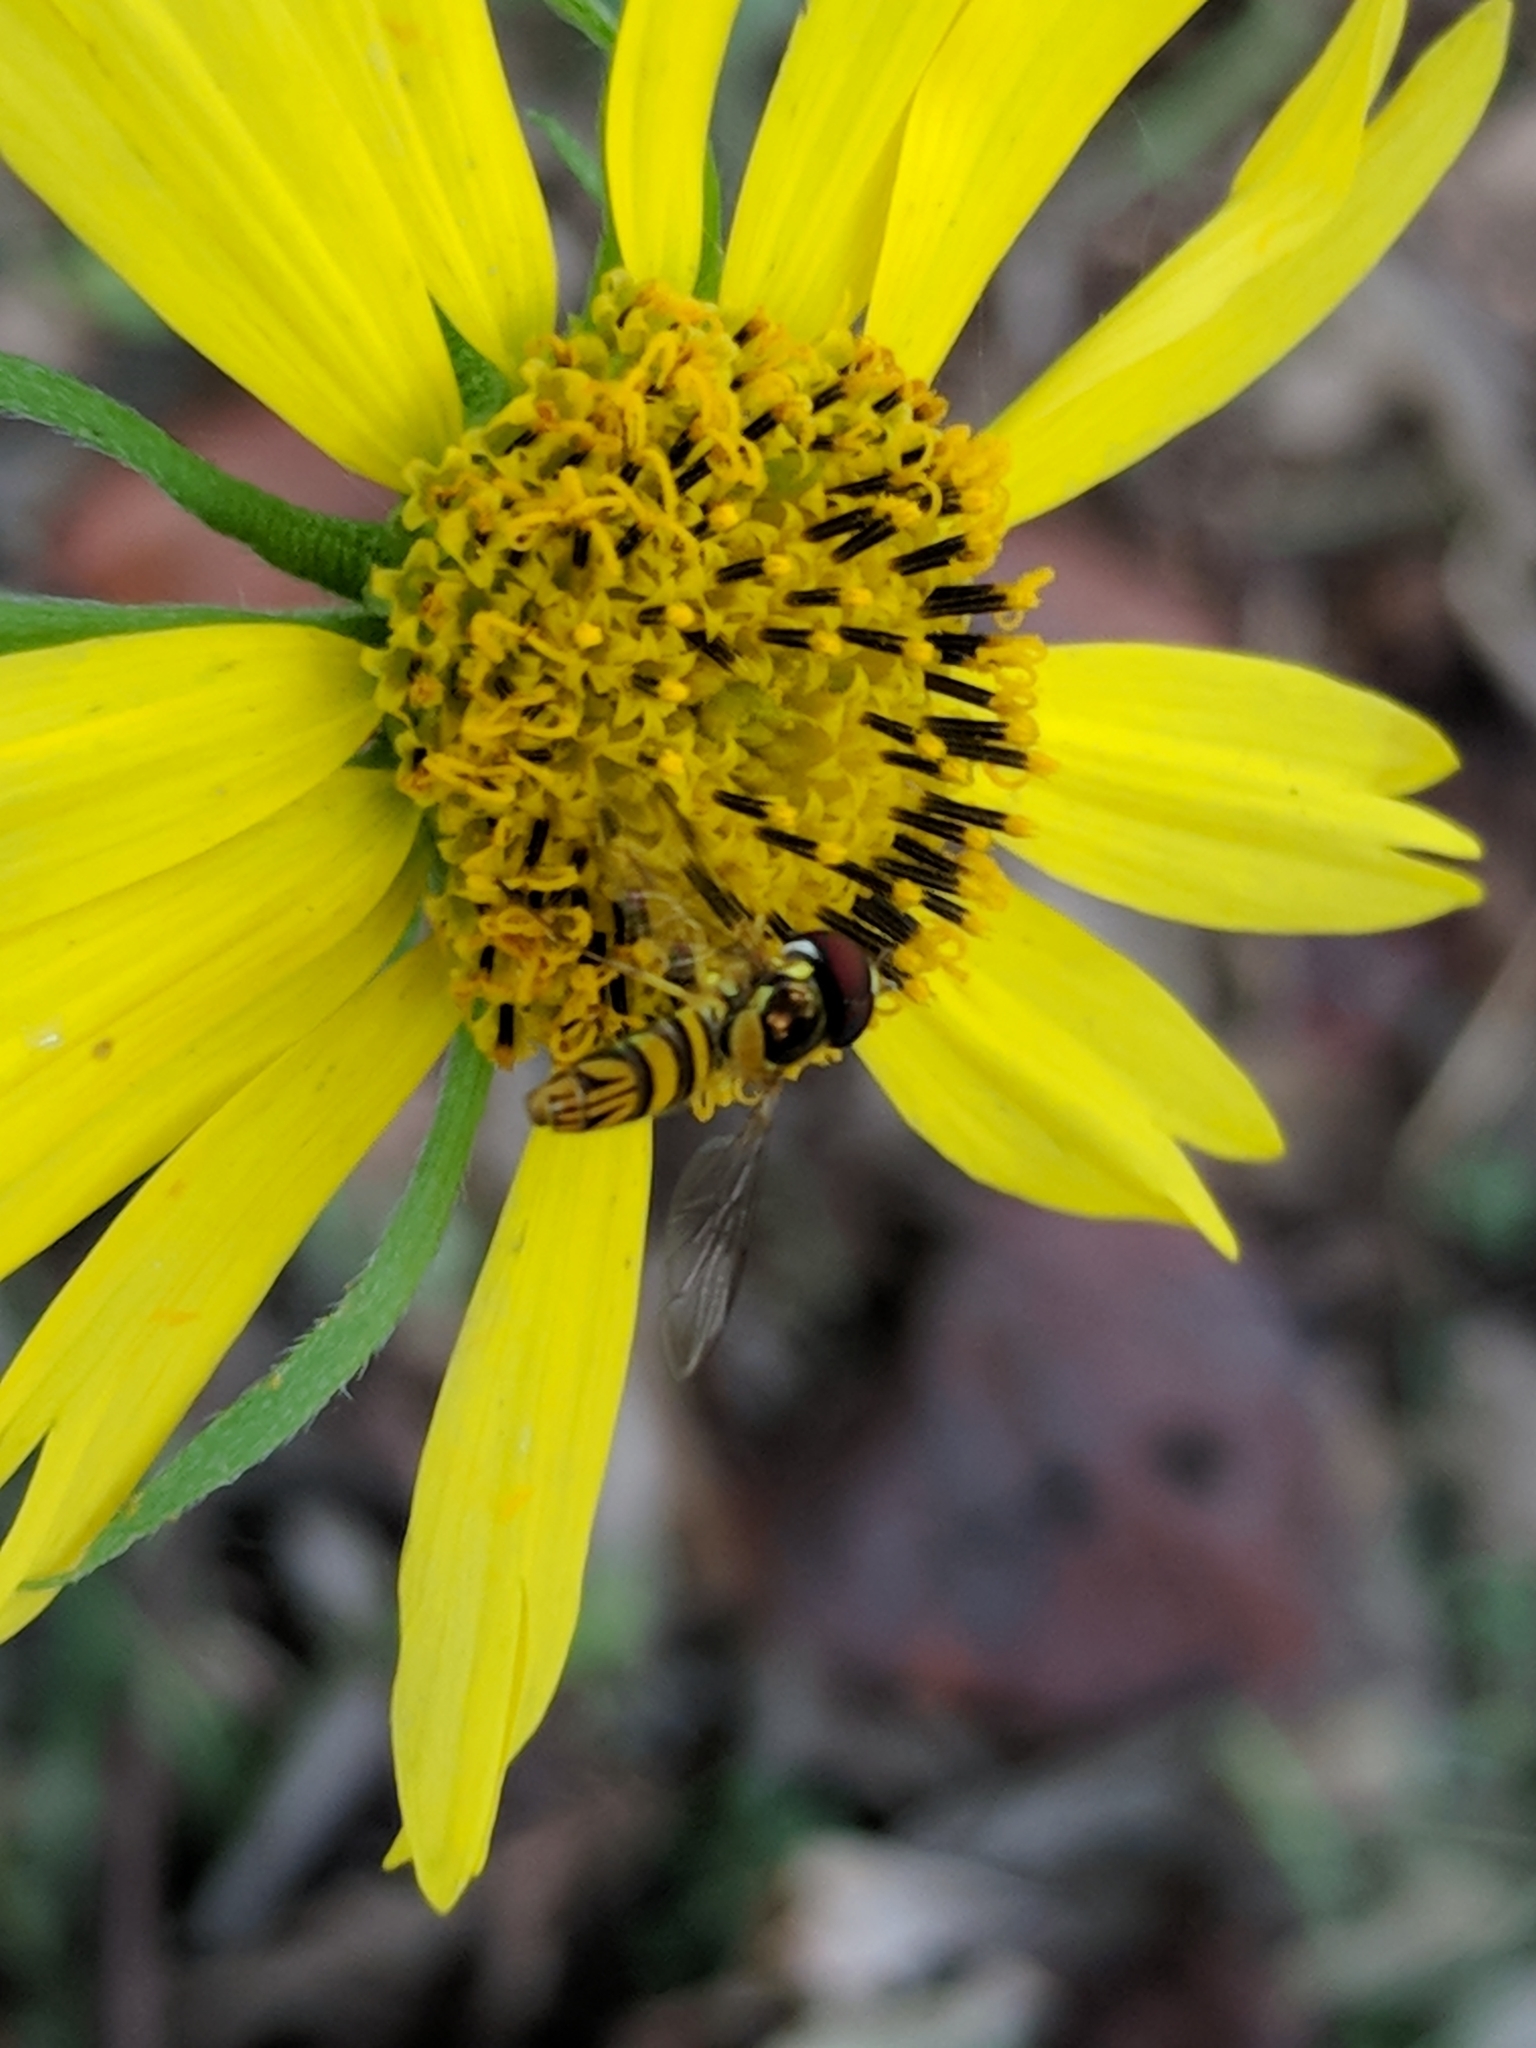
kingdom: Animalia
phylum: Arthropoda
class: Insecta
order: Diptera
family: Syrphidae
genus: Allograpta
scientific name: Allograpta obliqua
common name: Common oblique syrphid
